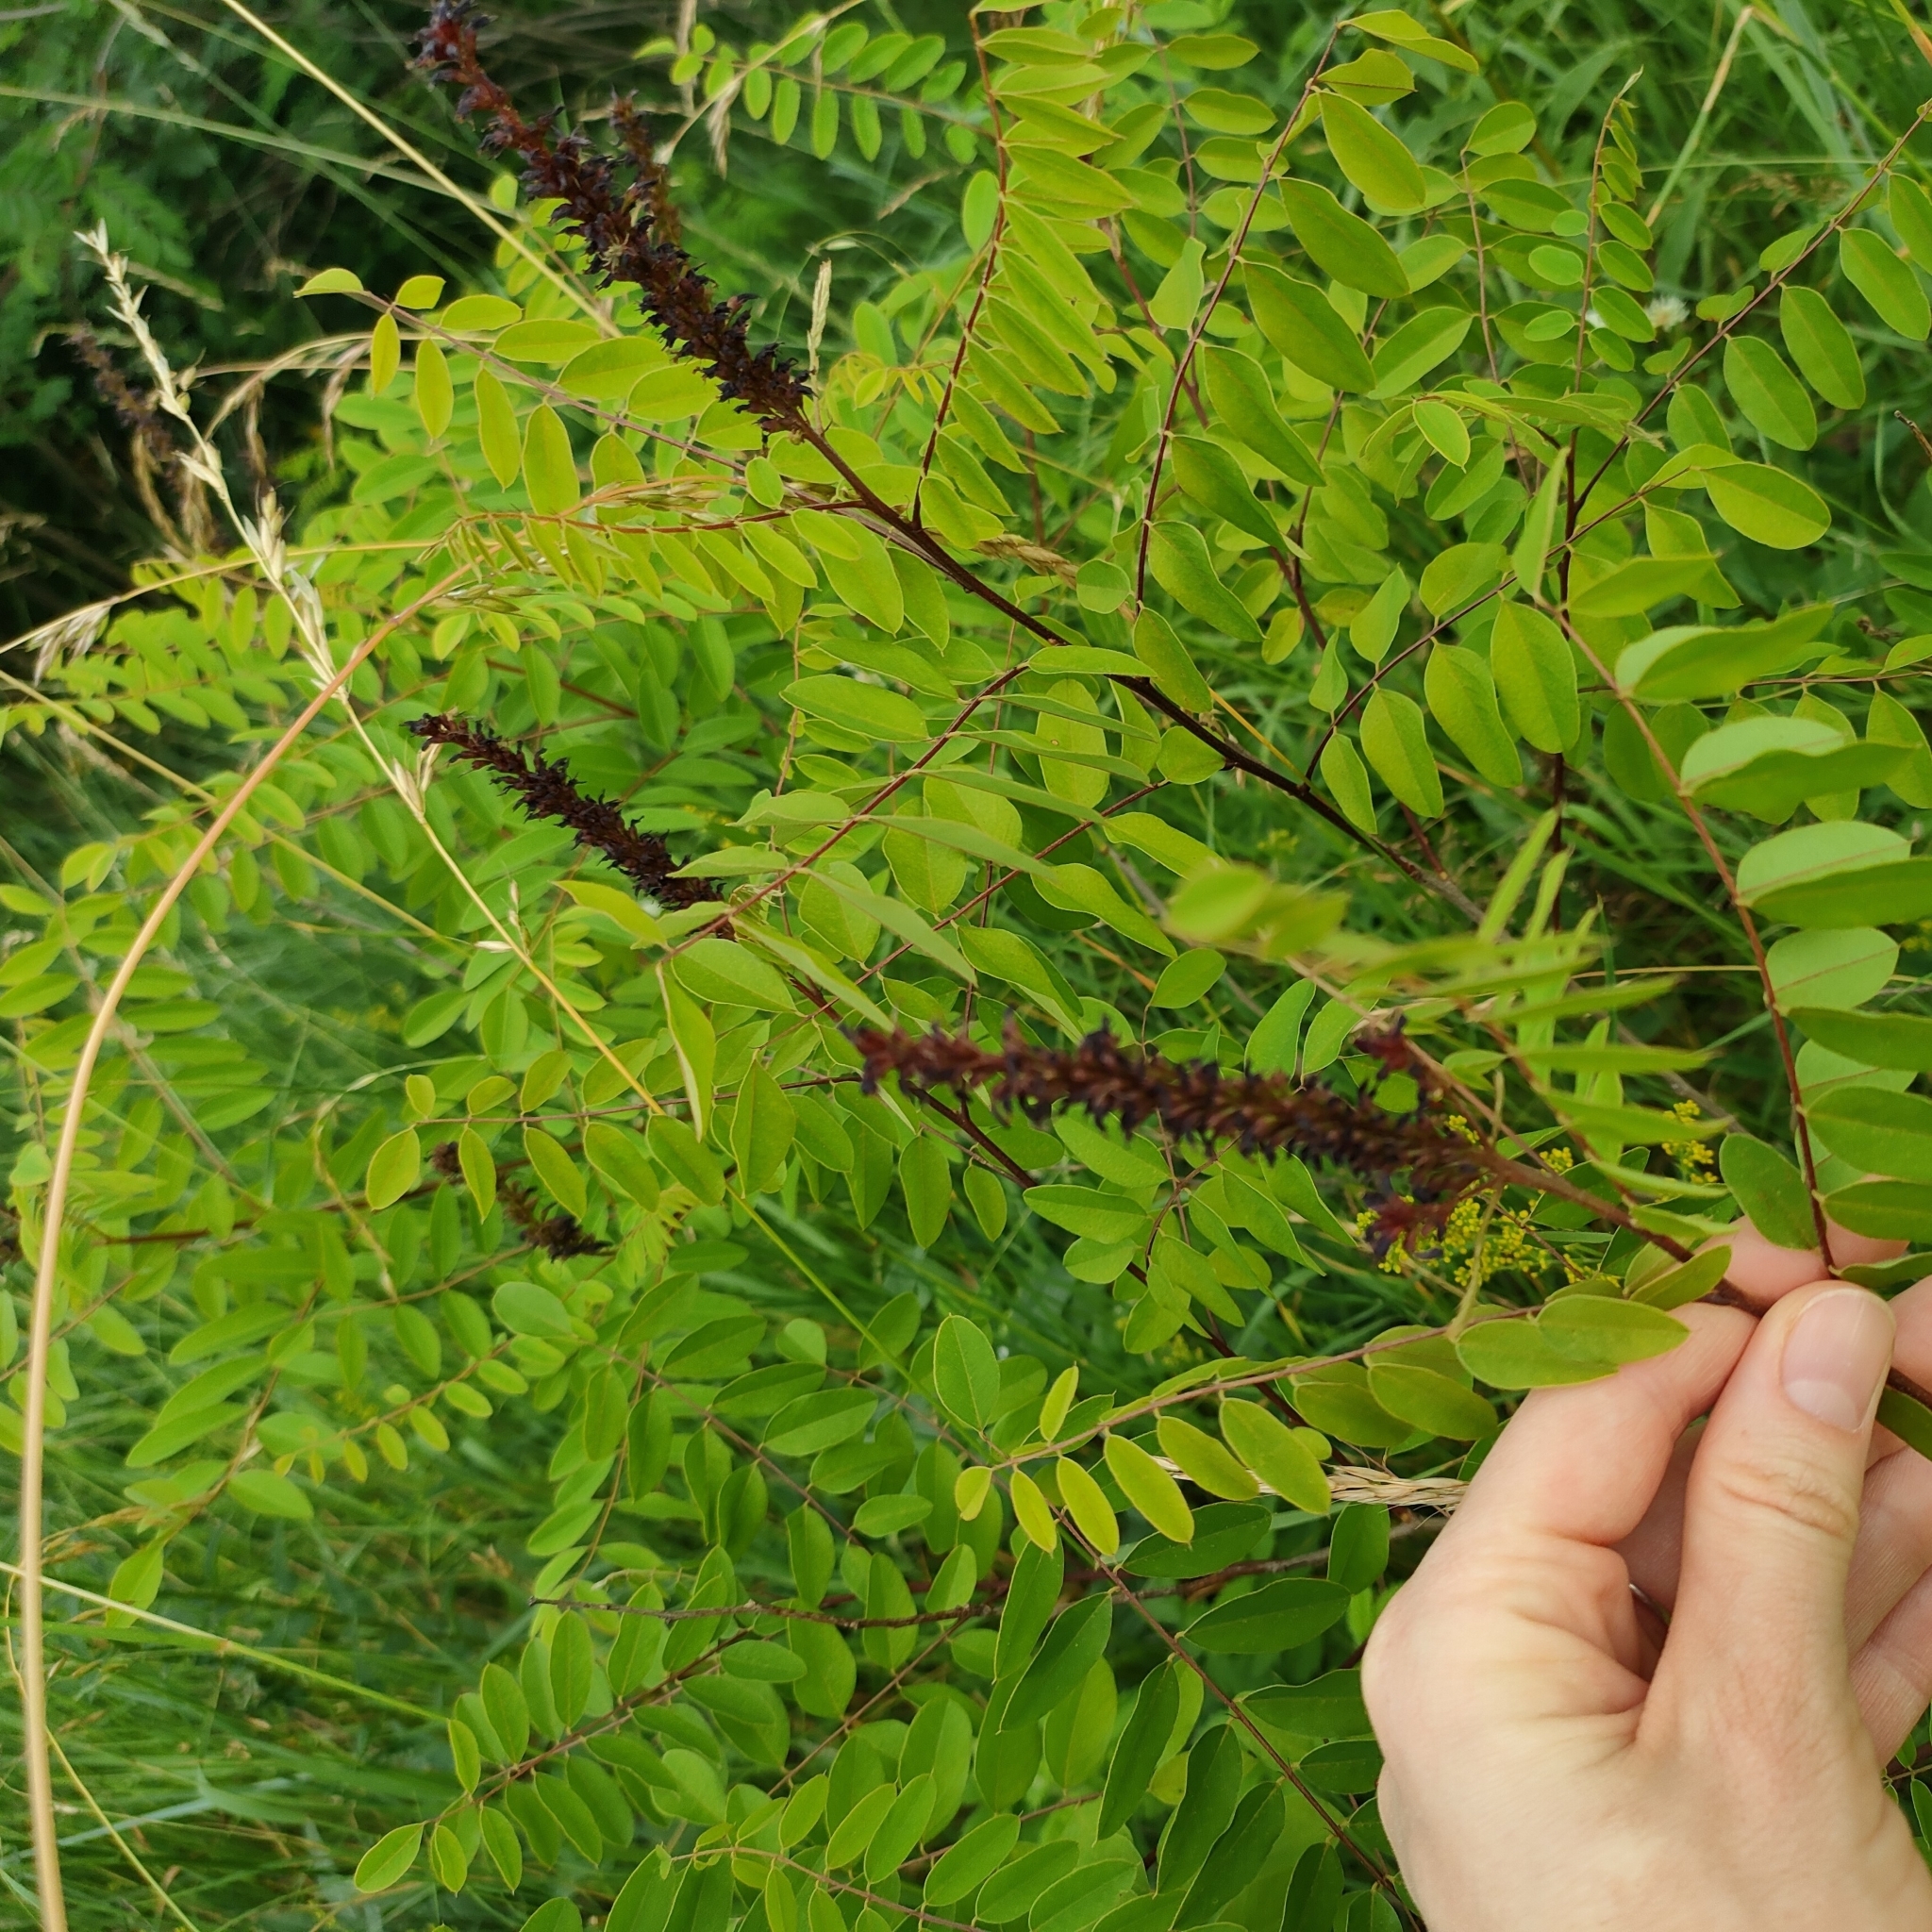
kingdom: Plantae
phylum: Tracheophyta
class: Magnoliopsida
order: Fabales
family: Fabaceae
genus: Amorpha
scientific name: Amorpha fruticosa
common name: False indigo
